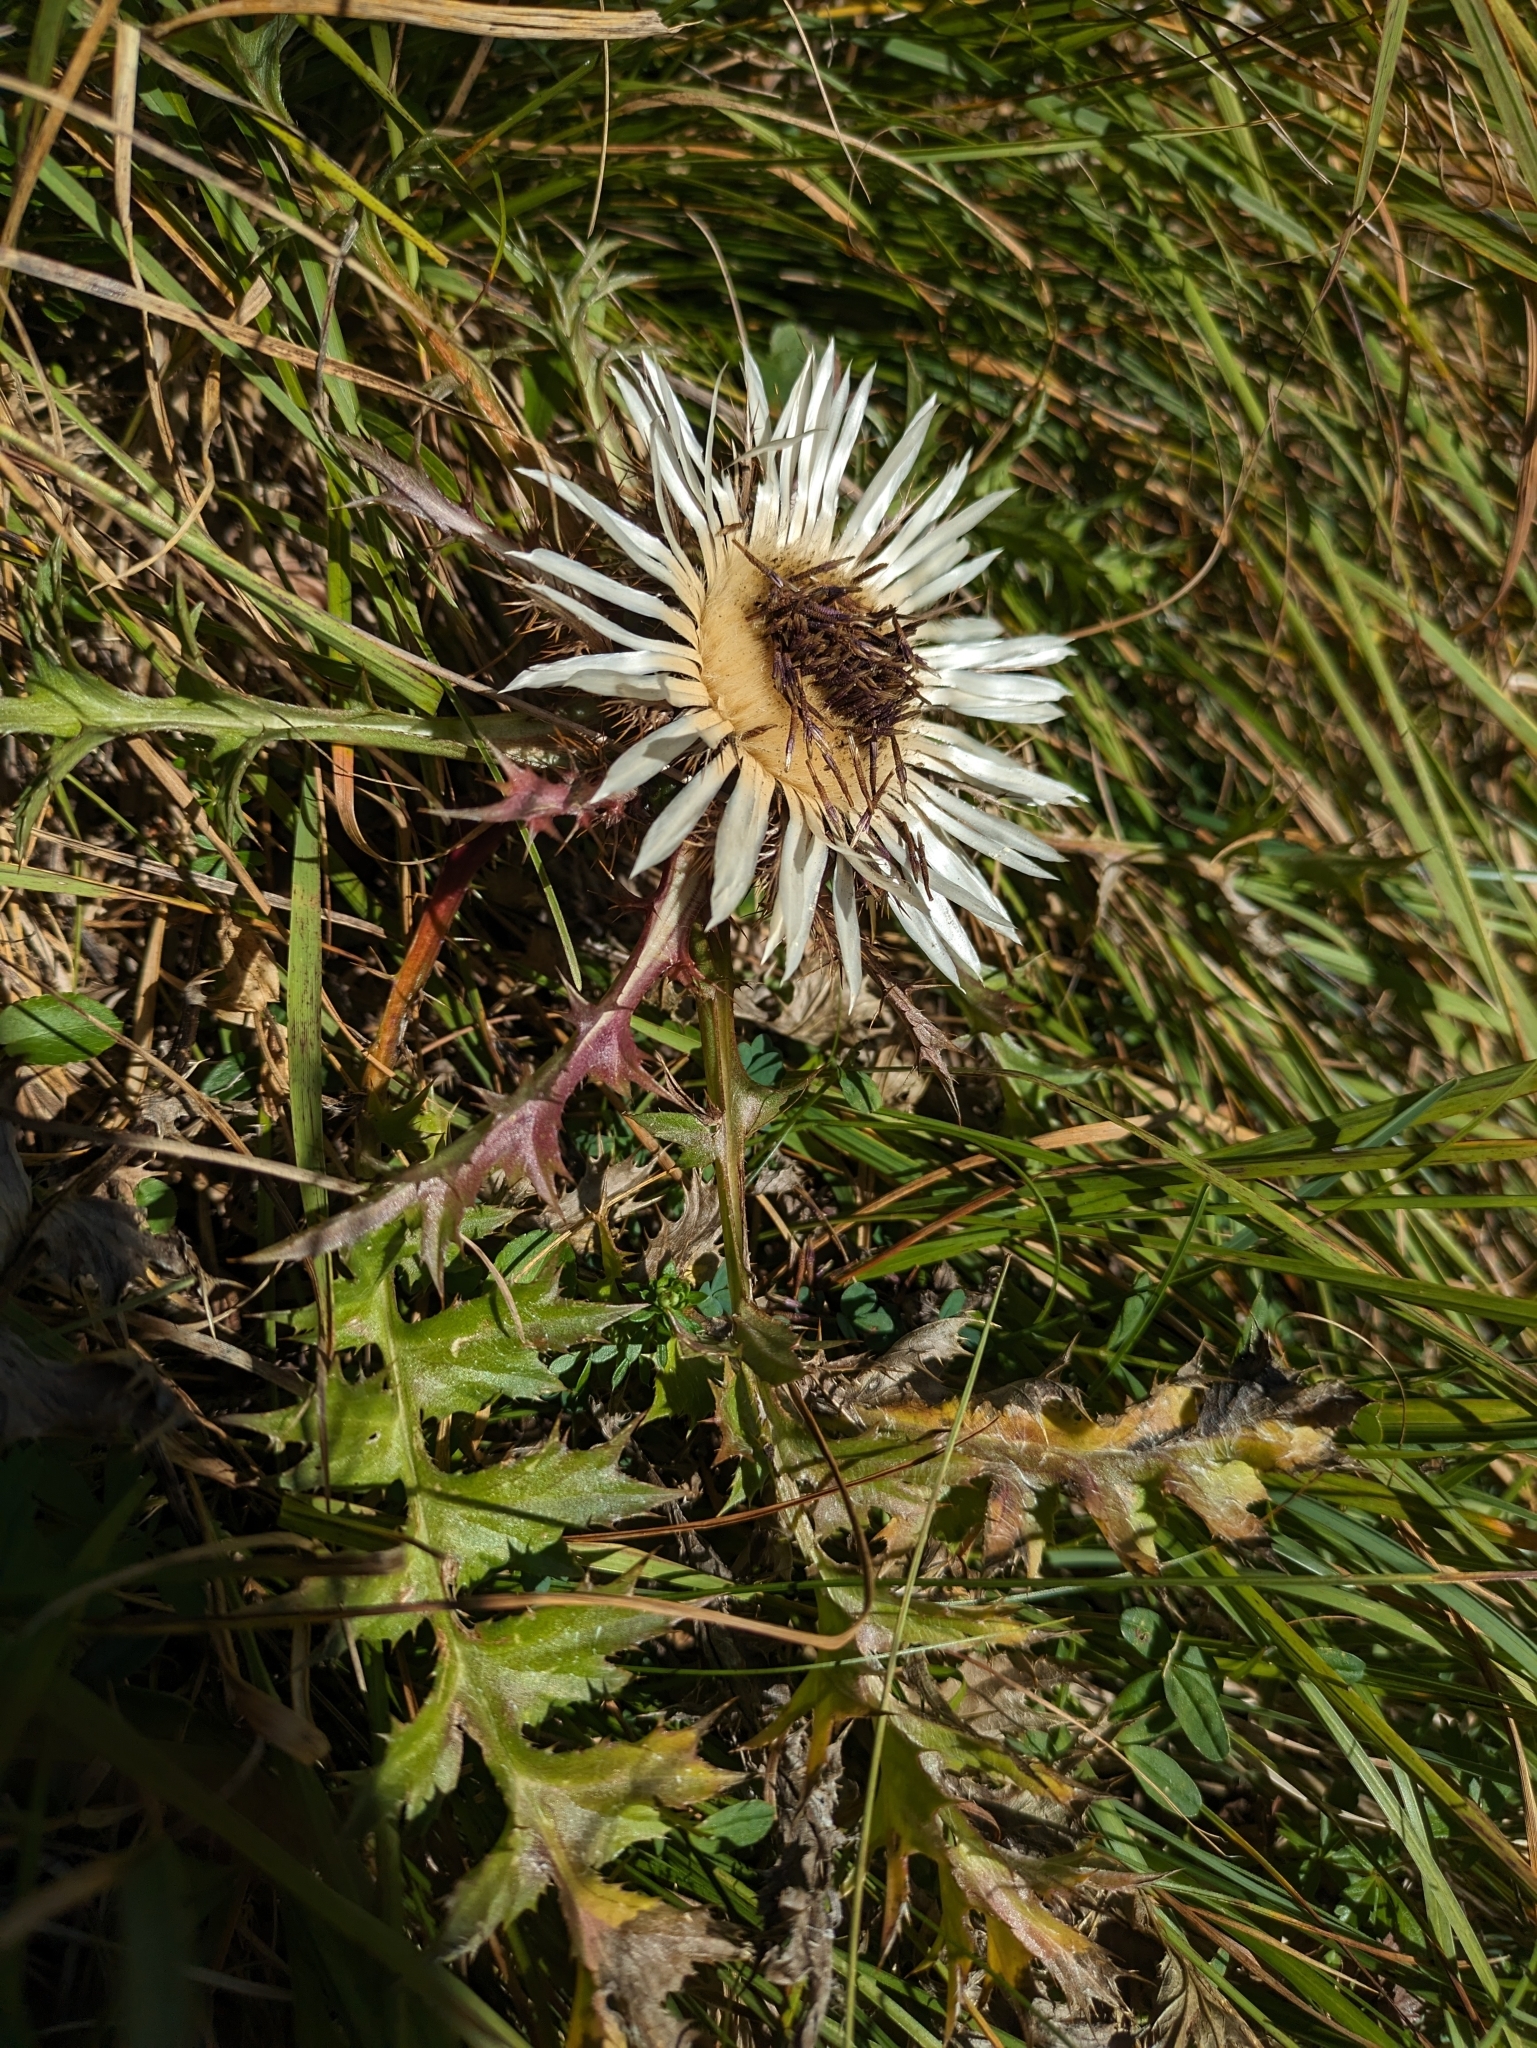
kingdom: Plantae
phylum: Tracheophyta
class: Magnoliopsida
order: Asterales
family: Asteraceae
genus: Carlina
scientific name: Carlina acaulis
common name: Stemless carline thistle
